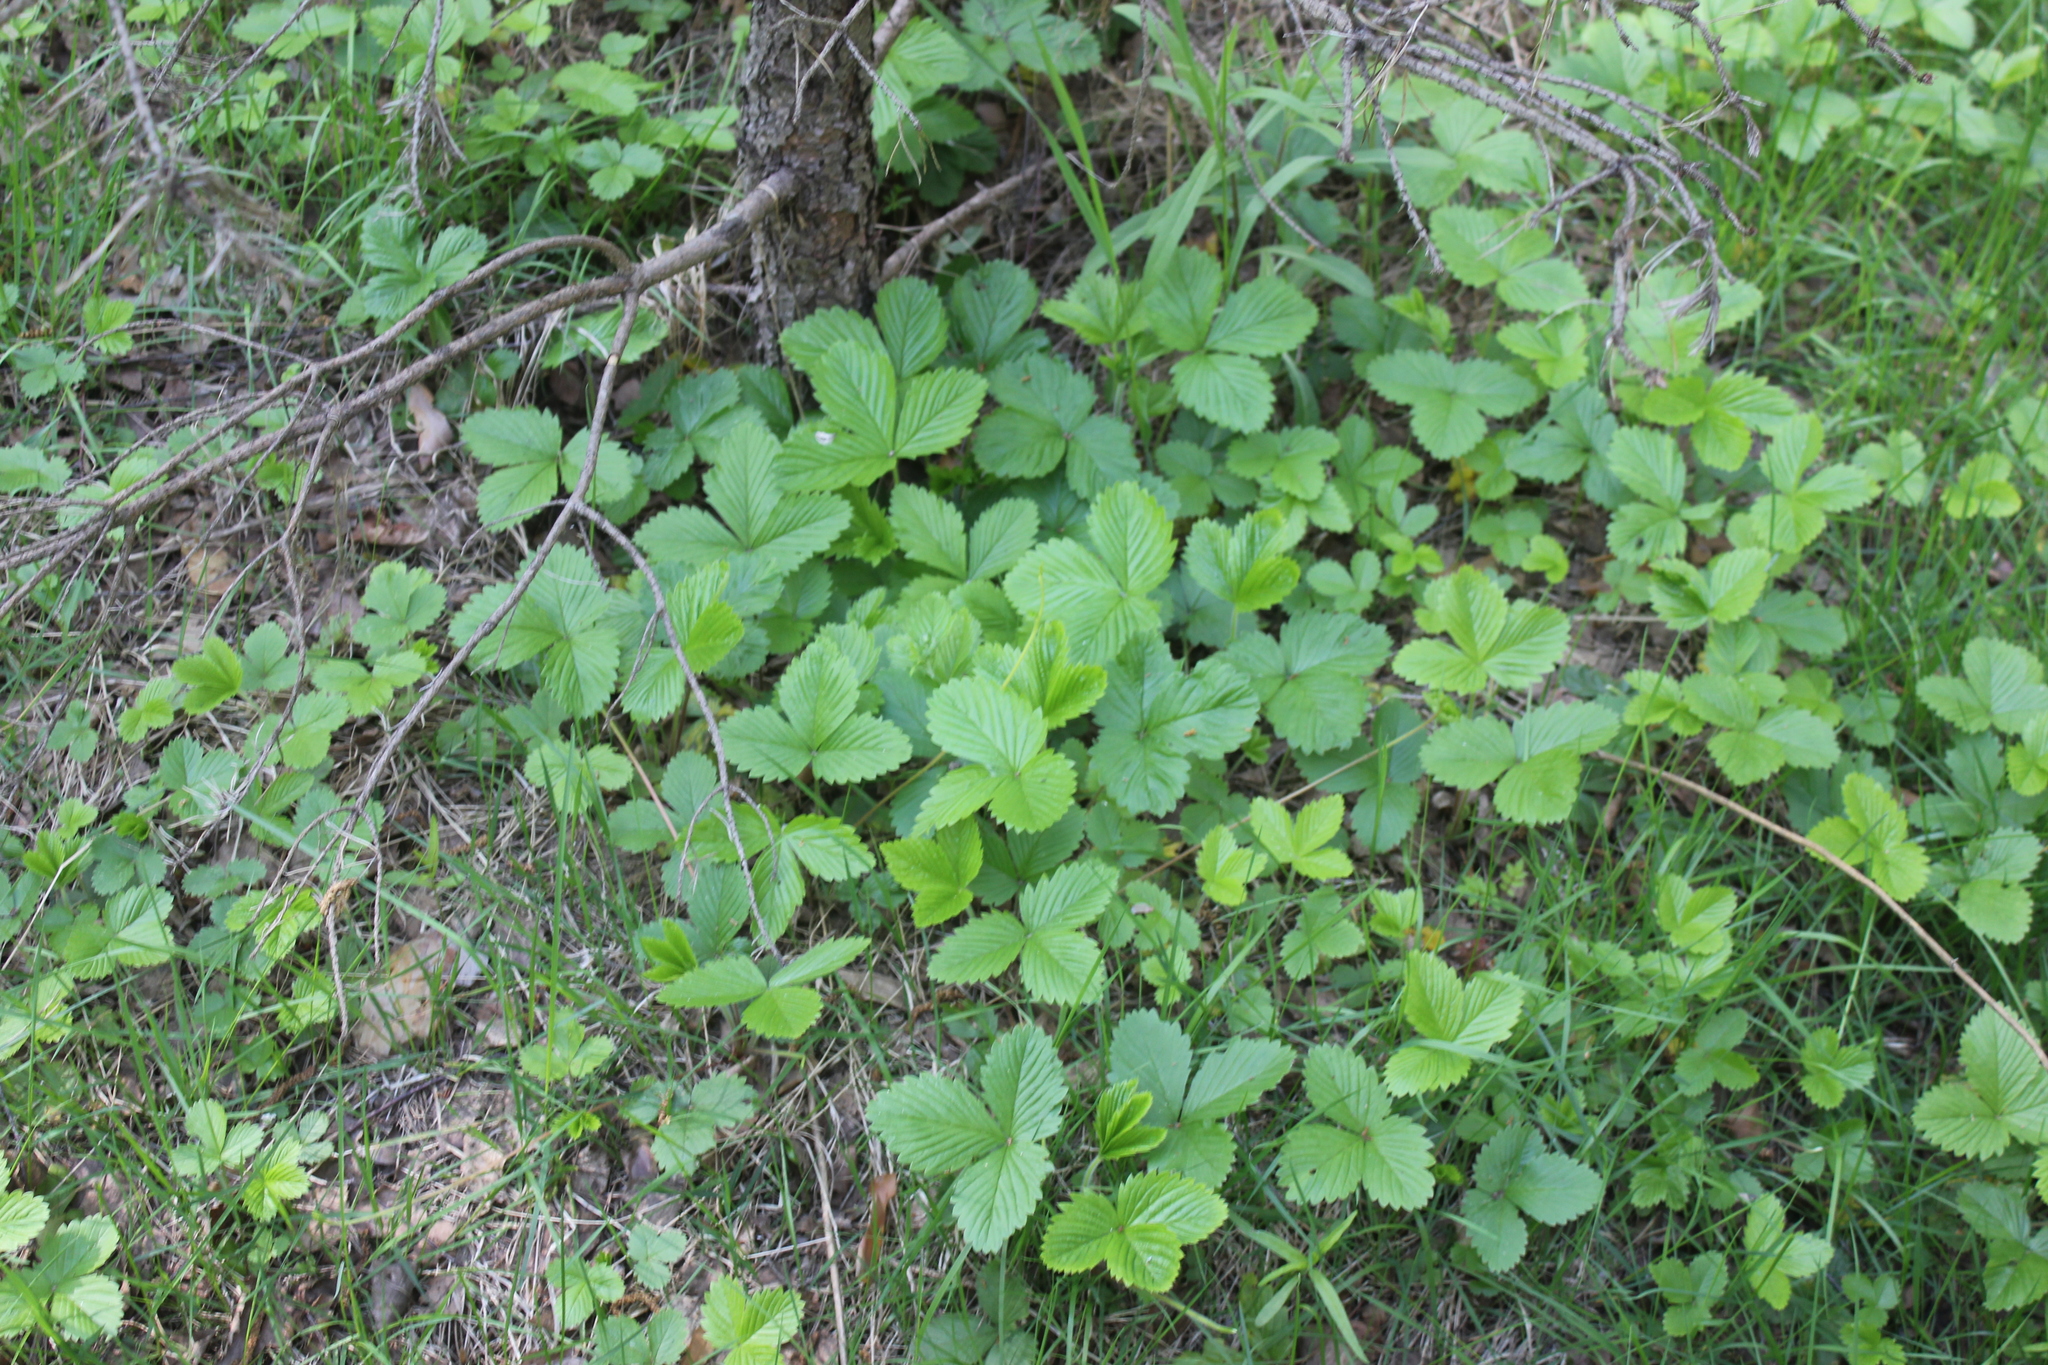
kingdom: Plantae
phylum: Tracheophyta
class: Magnoliopsida
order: Rosales
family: Rosaceae
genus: Fragaria
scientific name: Fragaria vesca
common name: Wild strawberry
